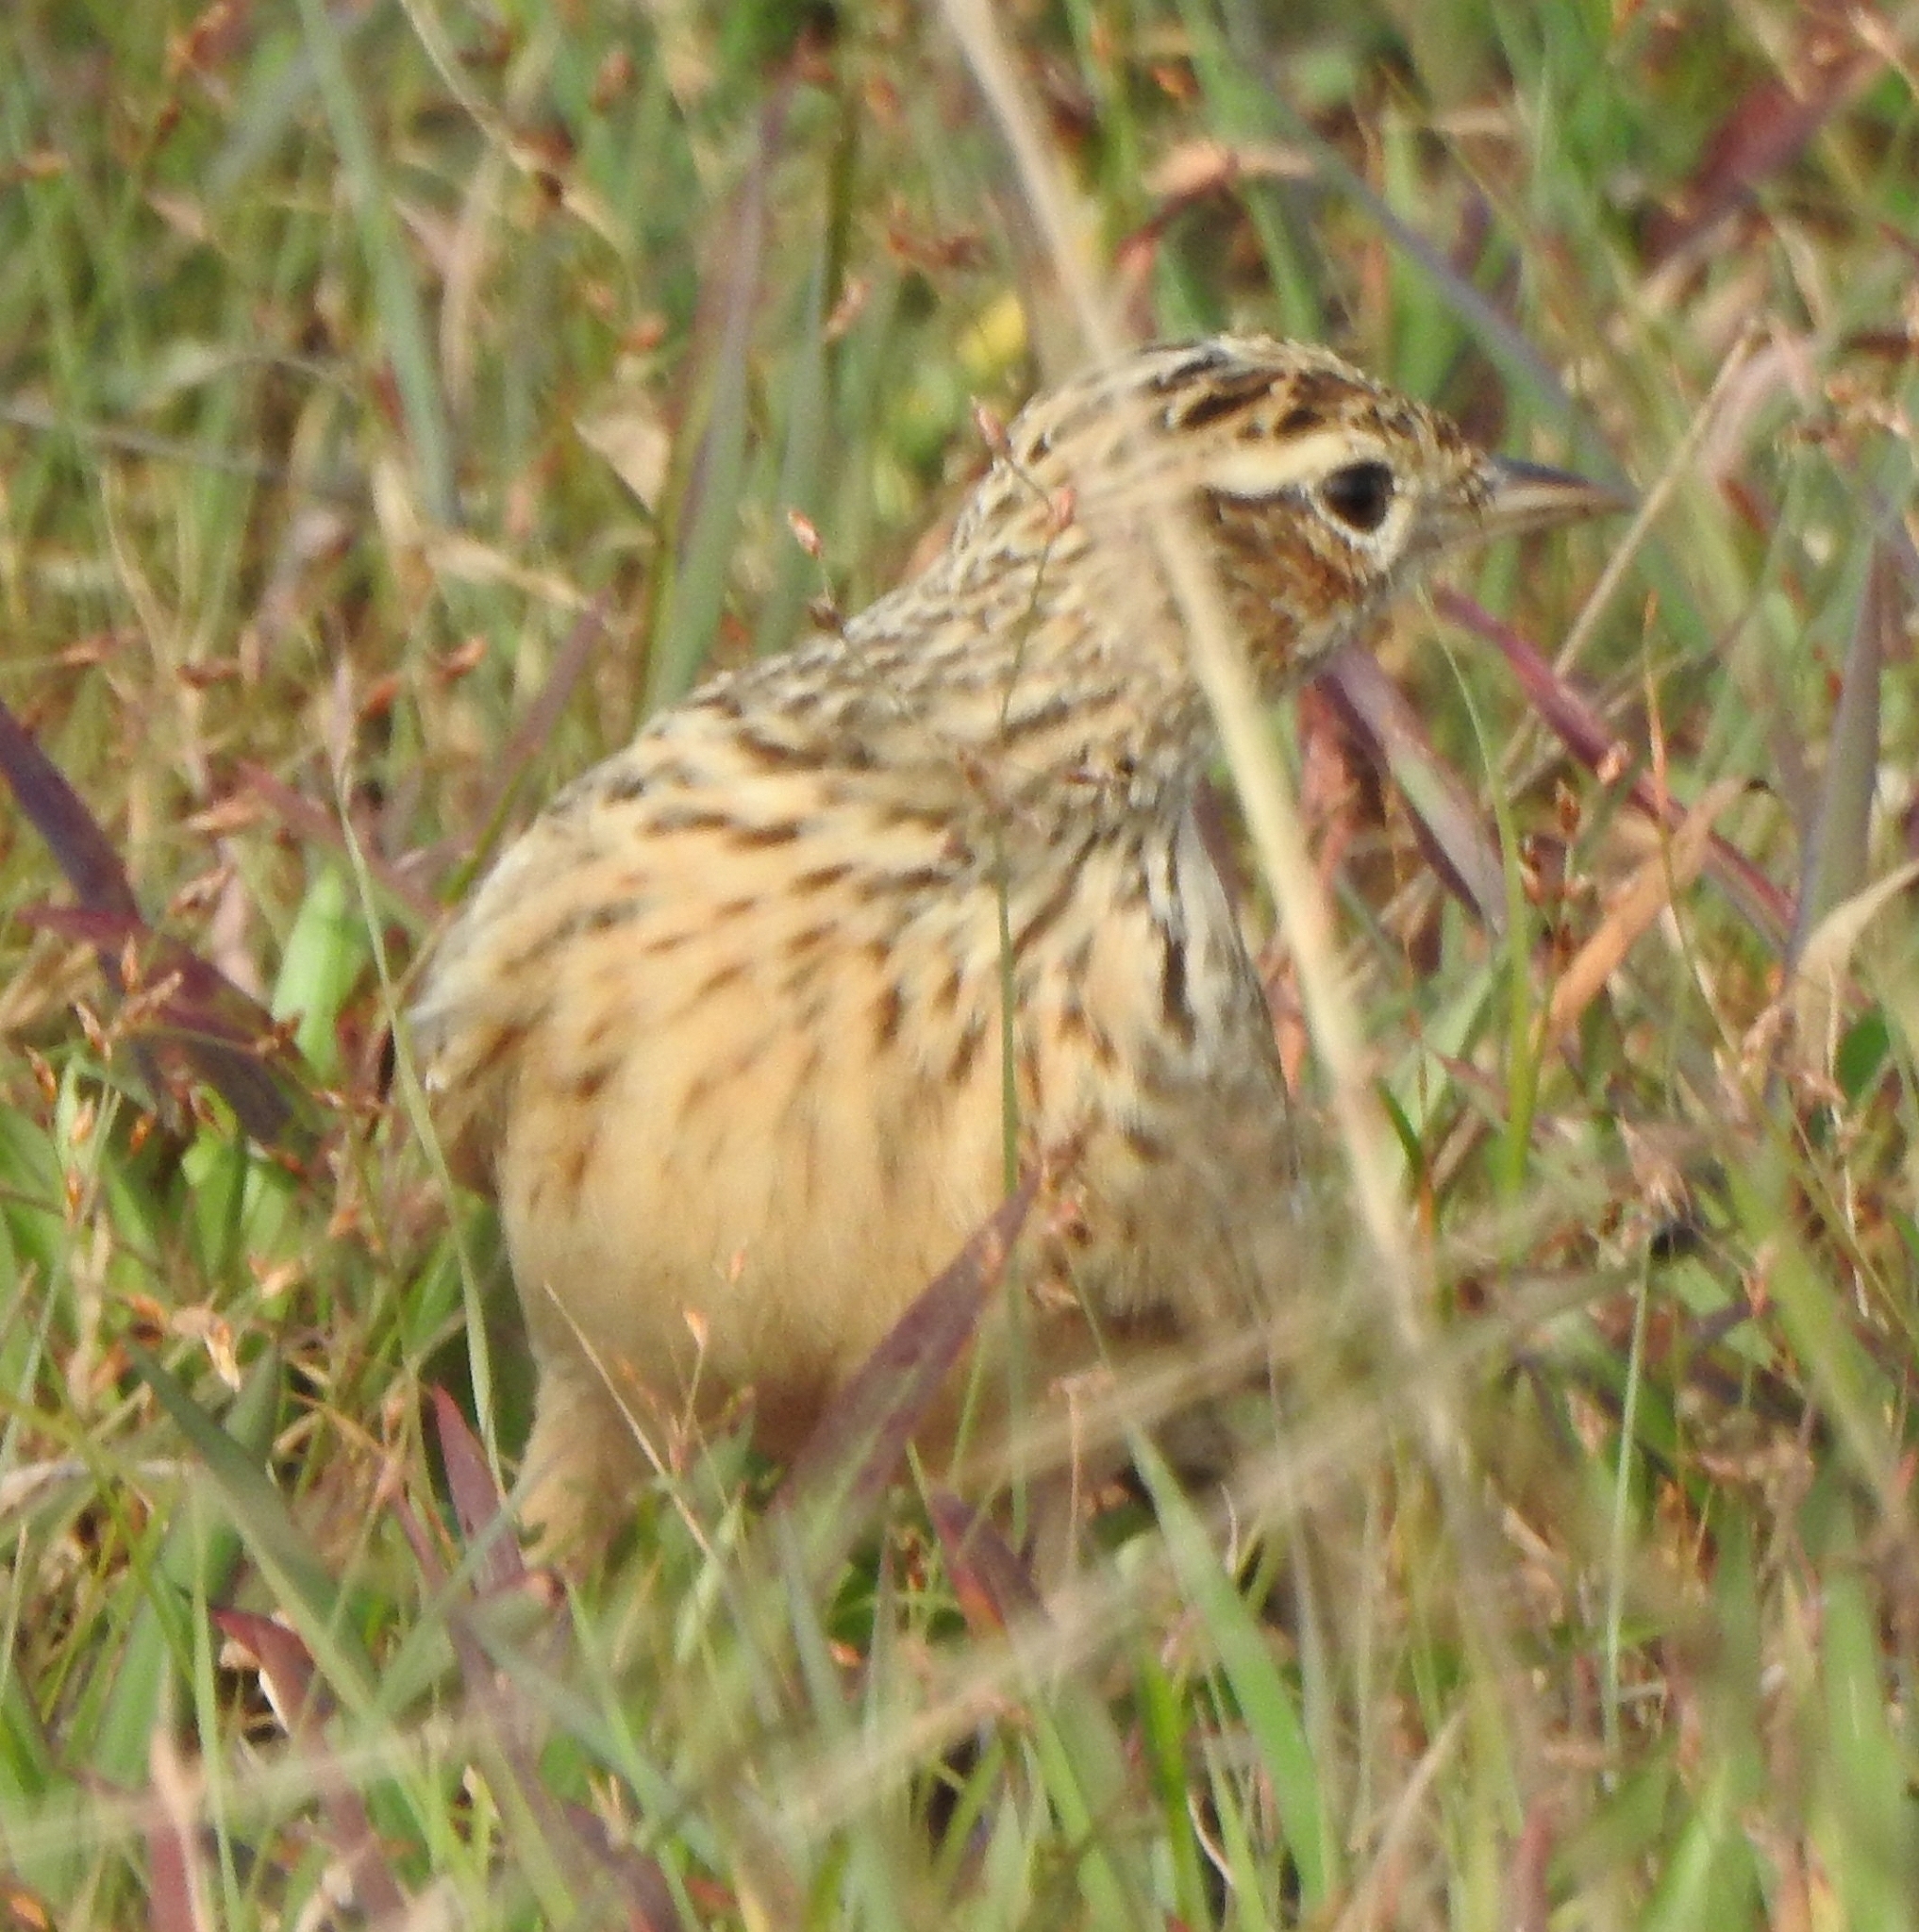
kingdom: Animalia
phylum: Chordata
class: Aves
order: Passeriformes
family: Alaudidae
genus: Alauda
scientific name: Alauda gulgula
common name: Oriental skylark
